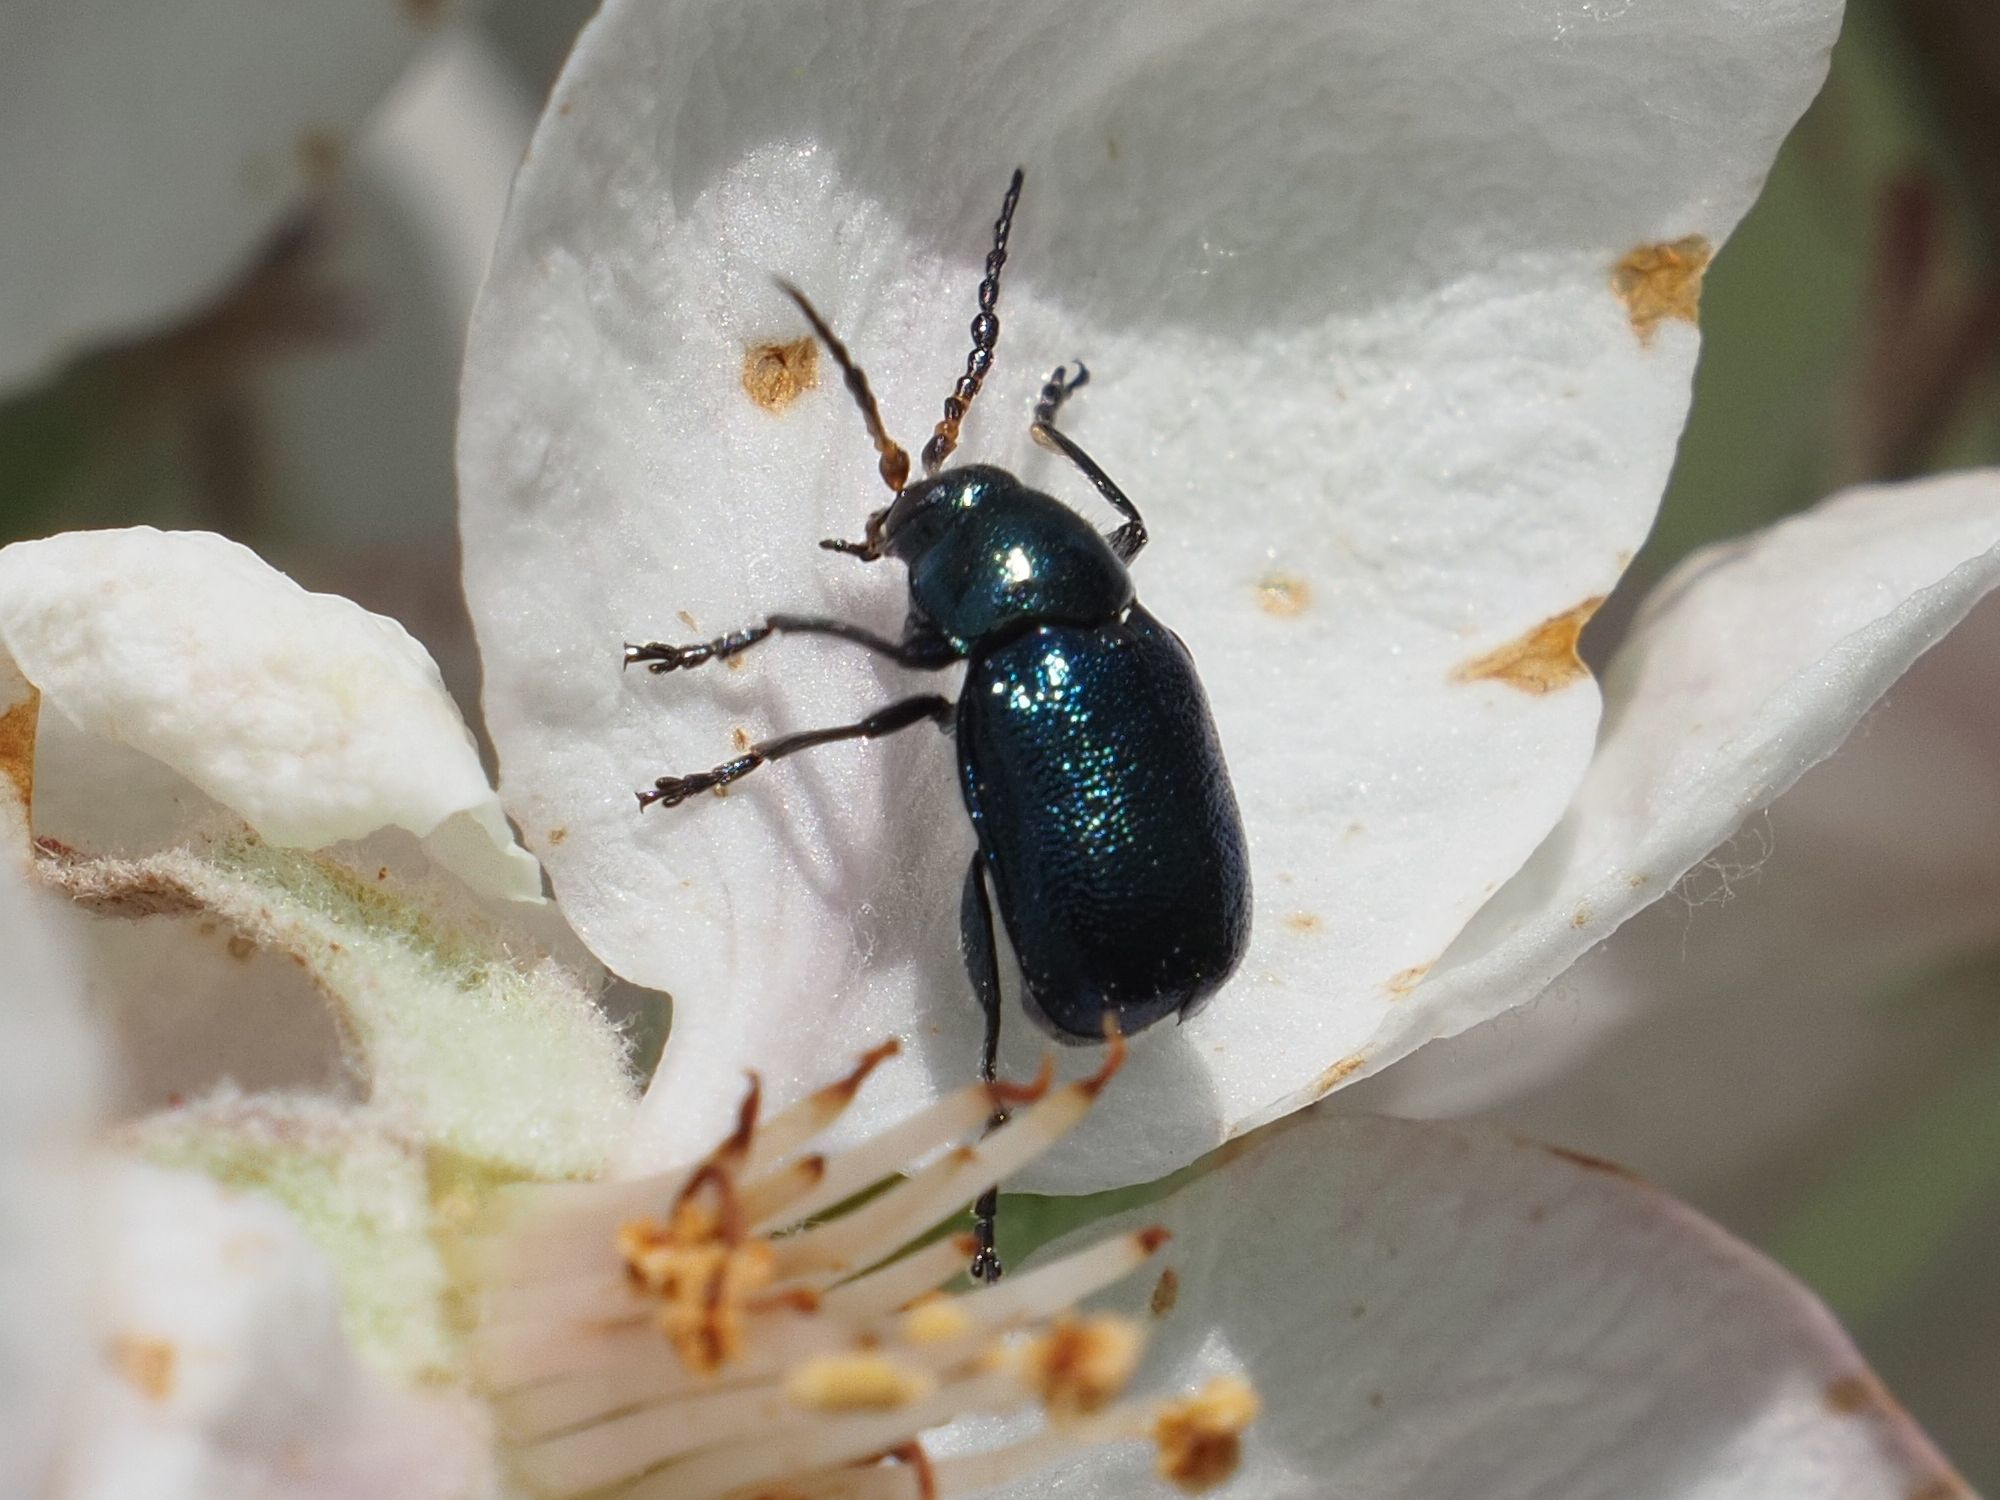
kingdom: Animalia
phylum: Arthropoda
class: Insecta
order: Coleoptera
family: Chrysomelidae
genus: Cryptocephalus
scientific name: Cryptocephalus schaefferi
